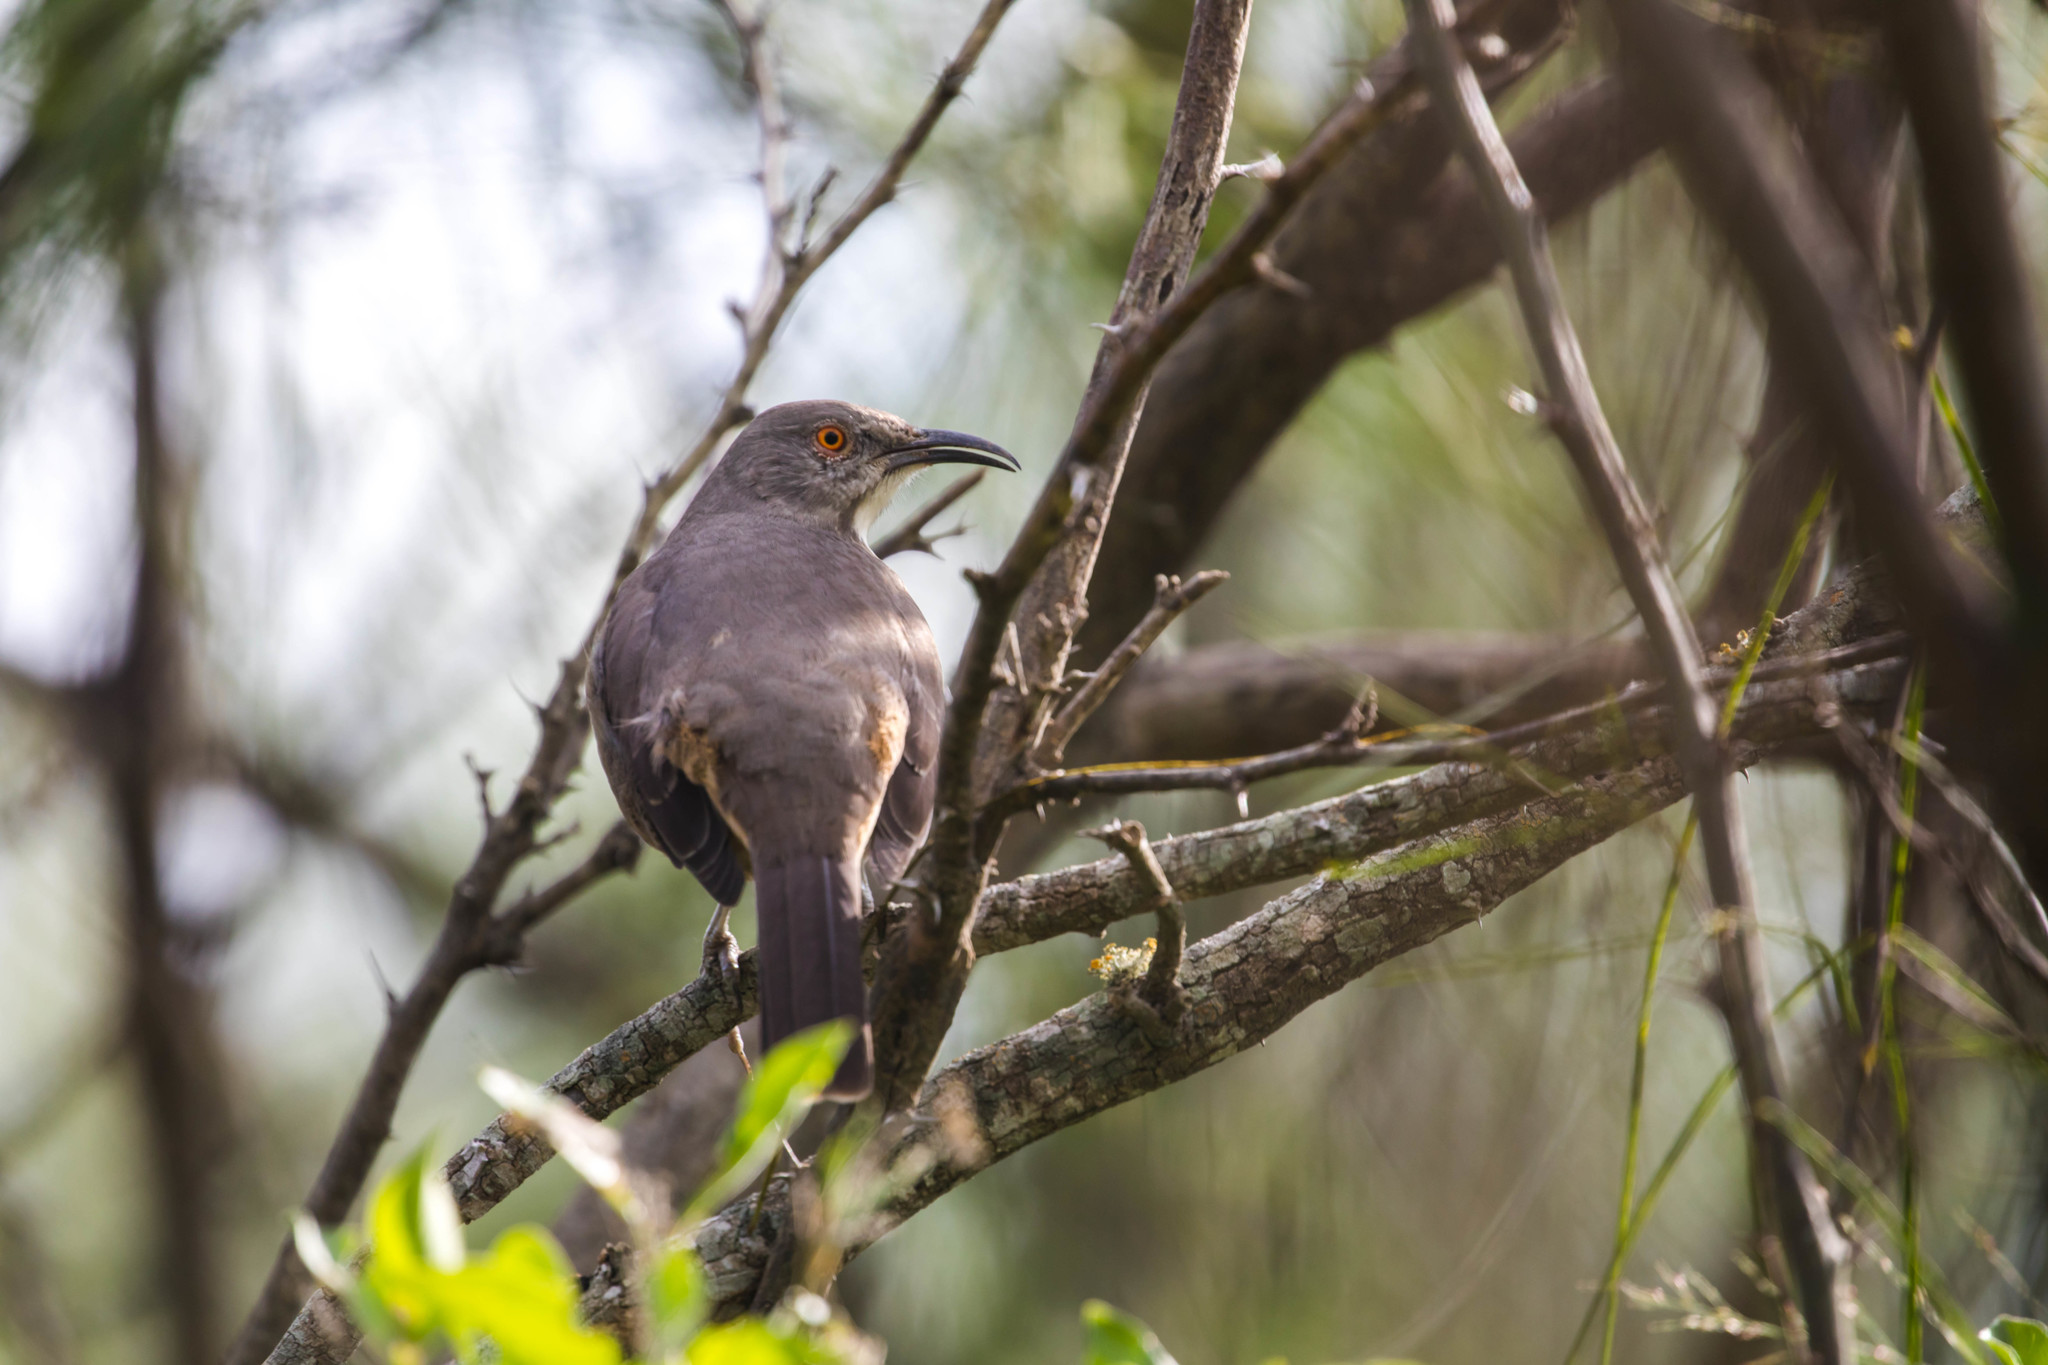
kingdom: Animalia
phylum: Chordata
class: Aves
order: Passeriformes
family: Mimidae
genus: Toxostoma
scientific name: Toxostoma curvirostre
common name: Curve-billed thrasher
